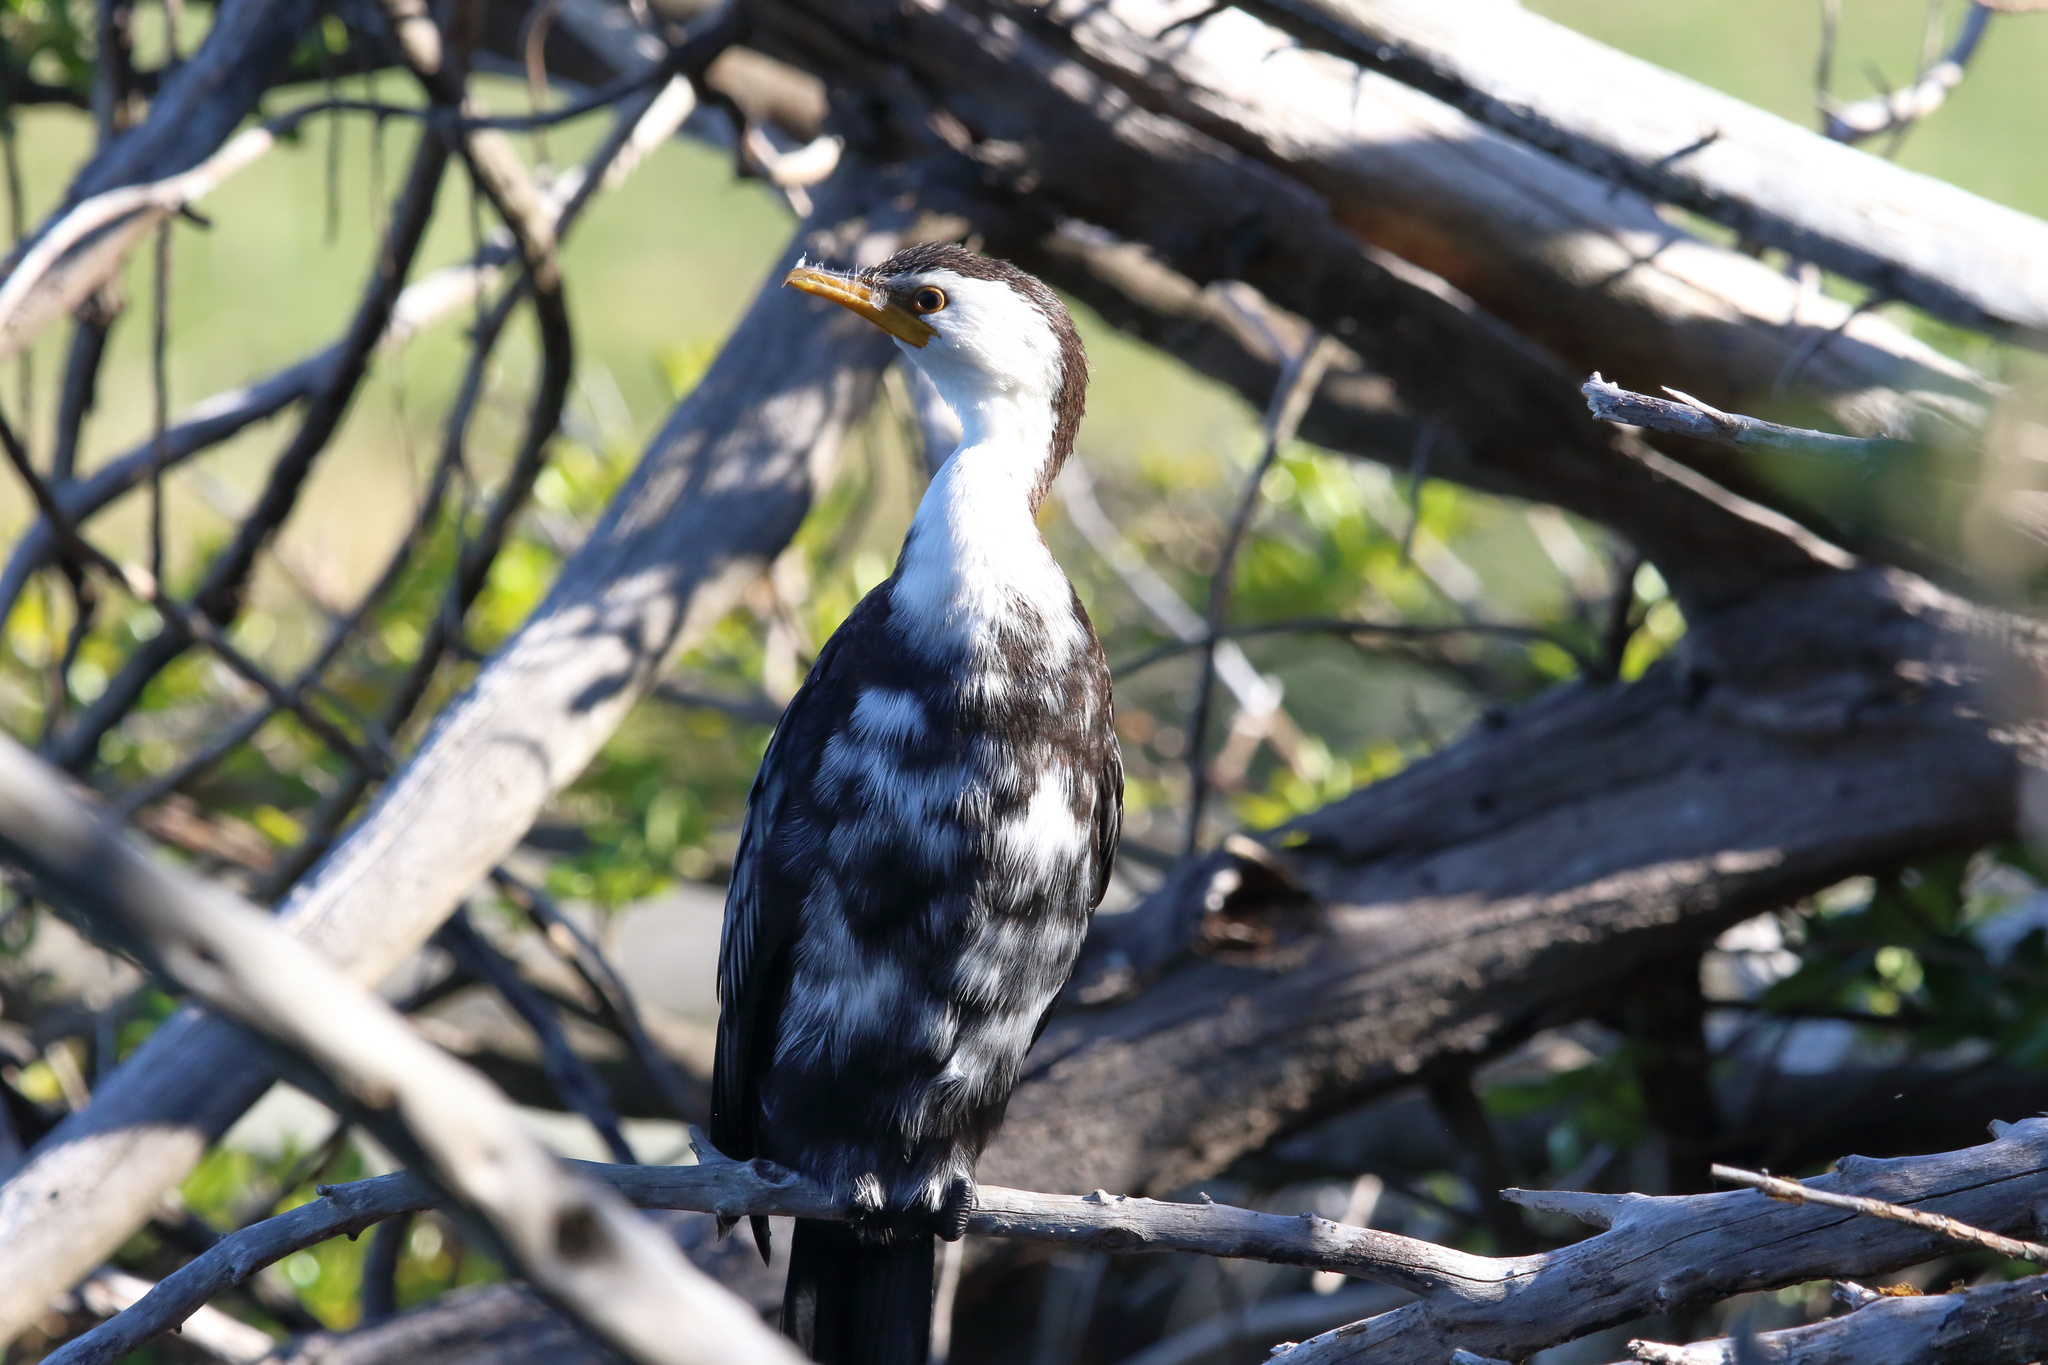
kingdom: Animalia
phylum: Chordata
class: Aves
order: Suliformes
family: Phalacrocoracidae
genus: Microcarbo
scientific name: Microcarbo melanoleucos
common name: Little pied cormorant
